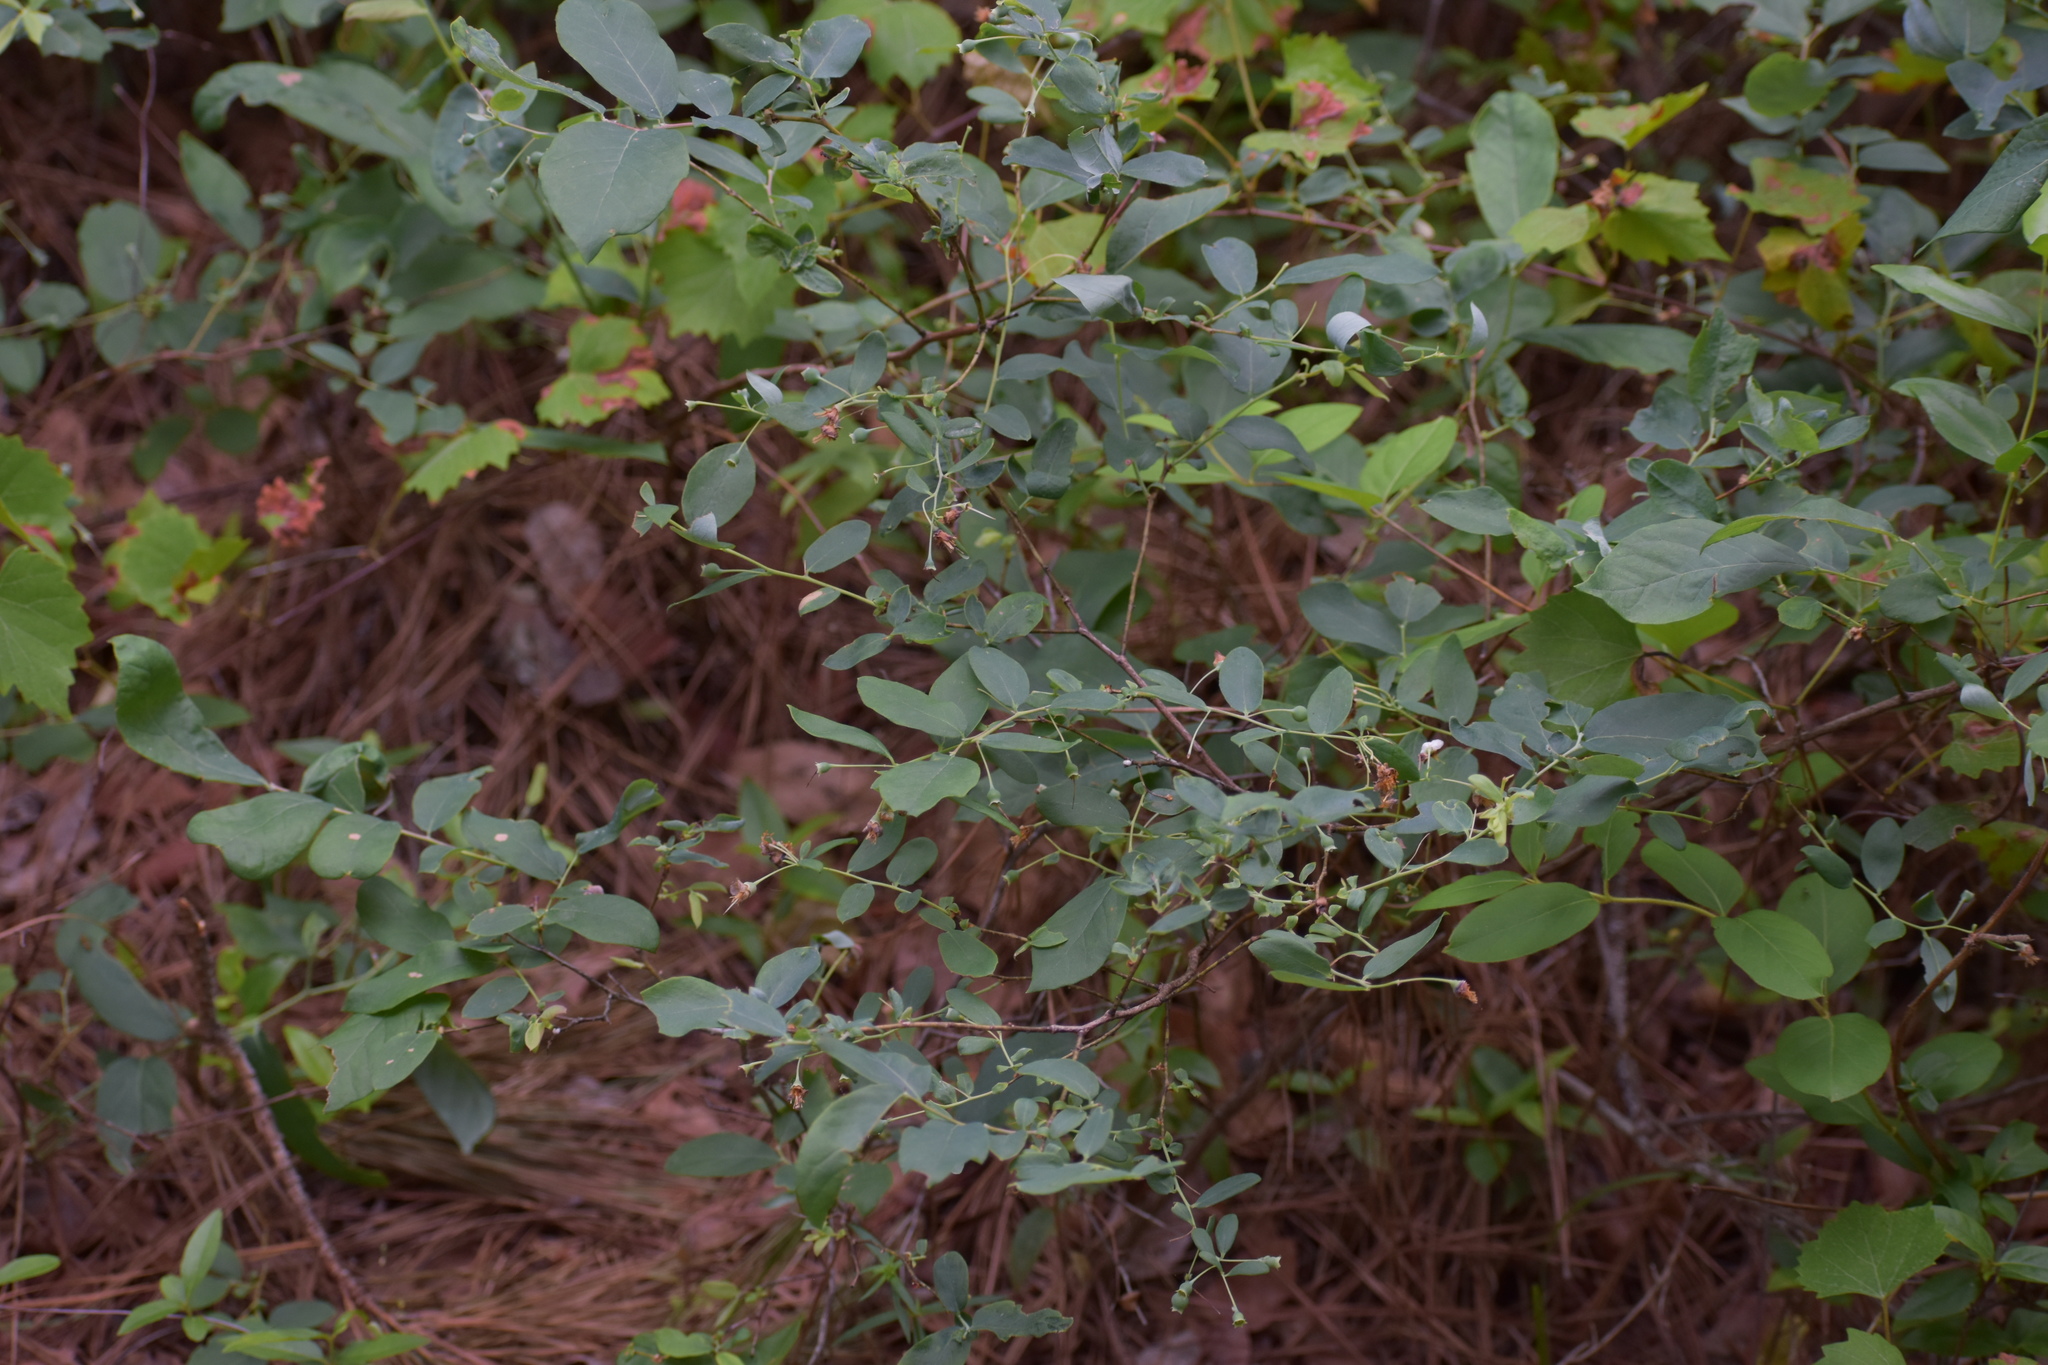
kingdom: Plantae
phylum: Tracheophyta
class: Magnoliopsida
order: Ericales
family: Ericaceae
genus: Vaccinium
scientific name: Vaccinium stamineum
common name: Deerberry
